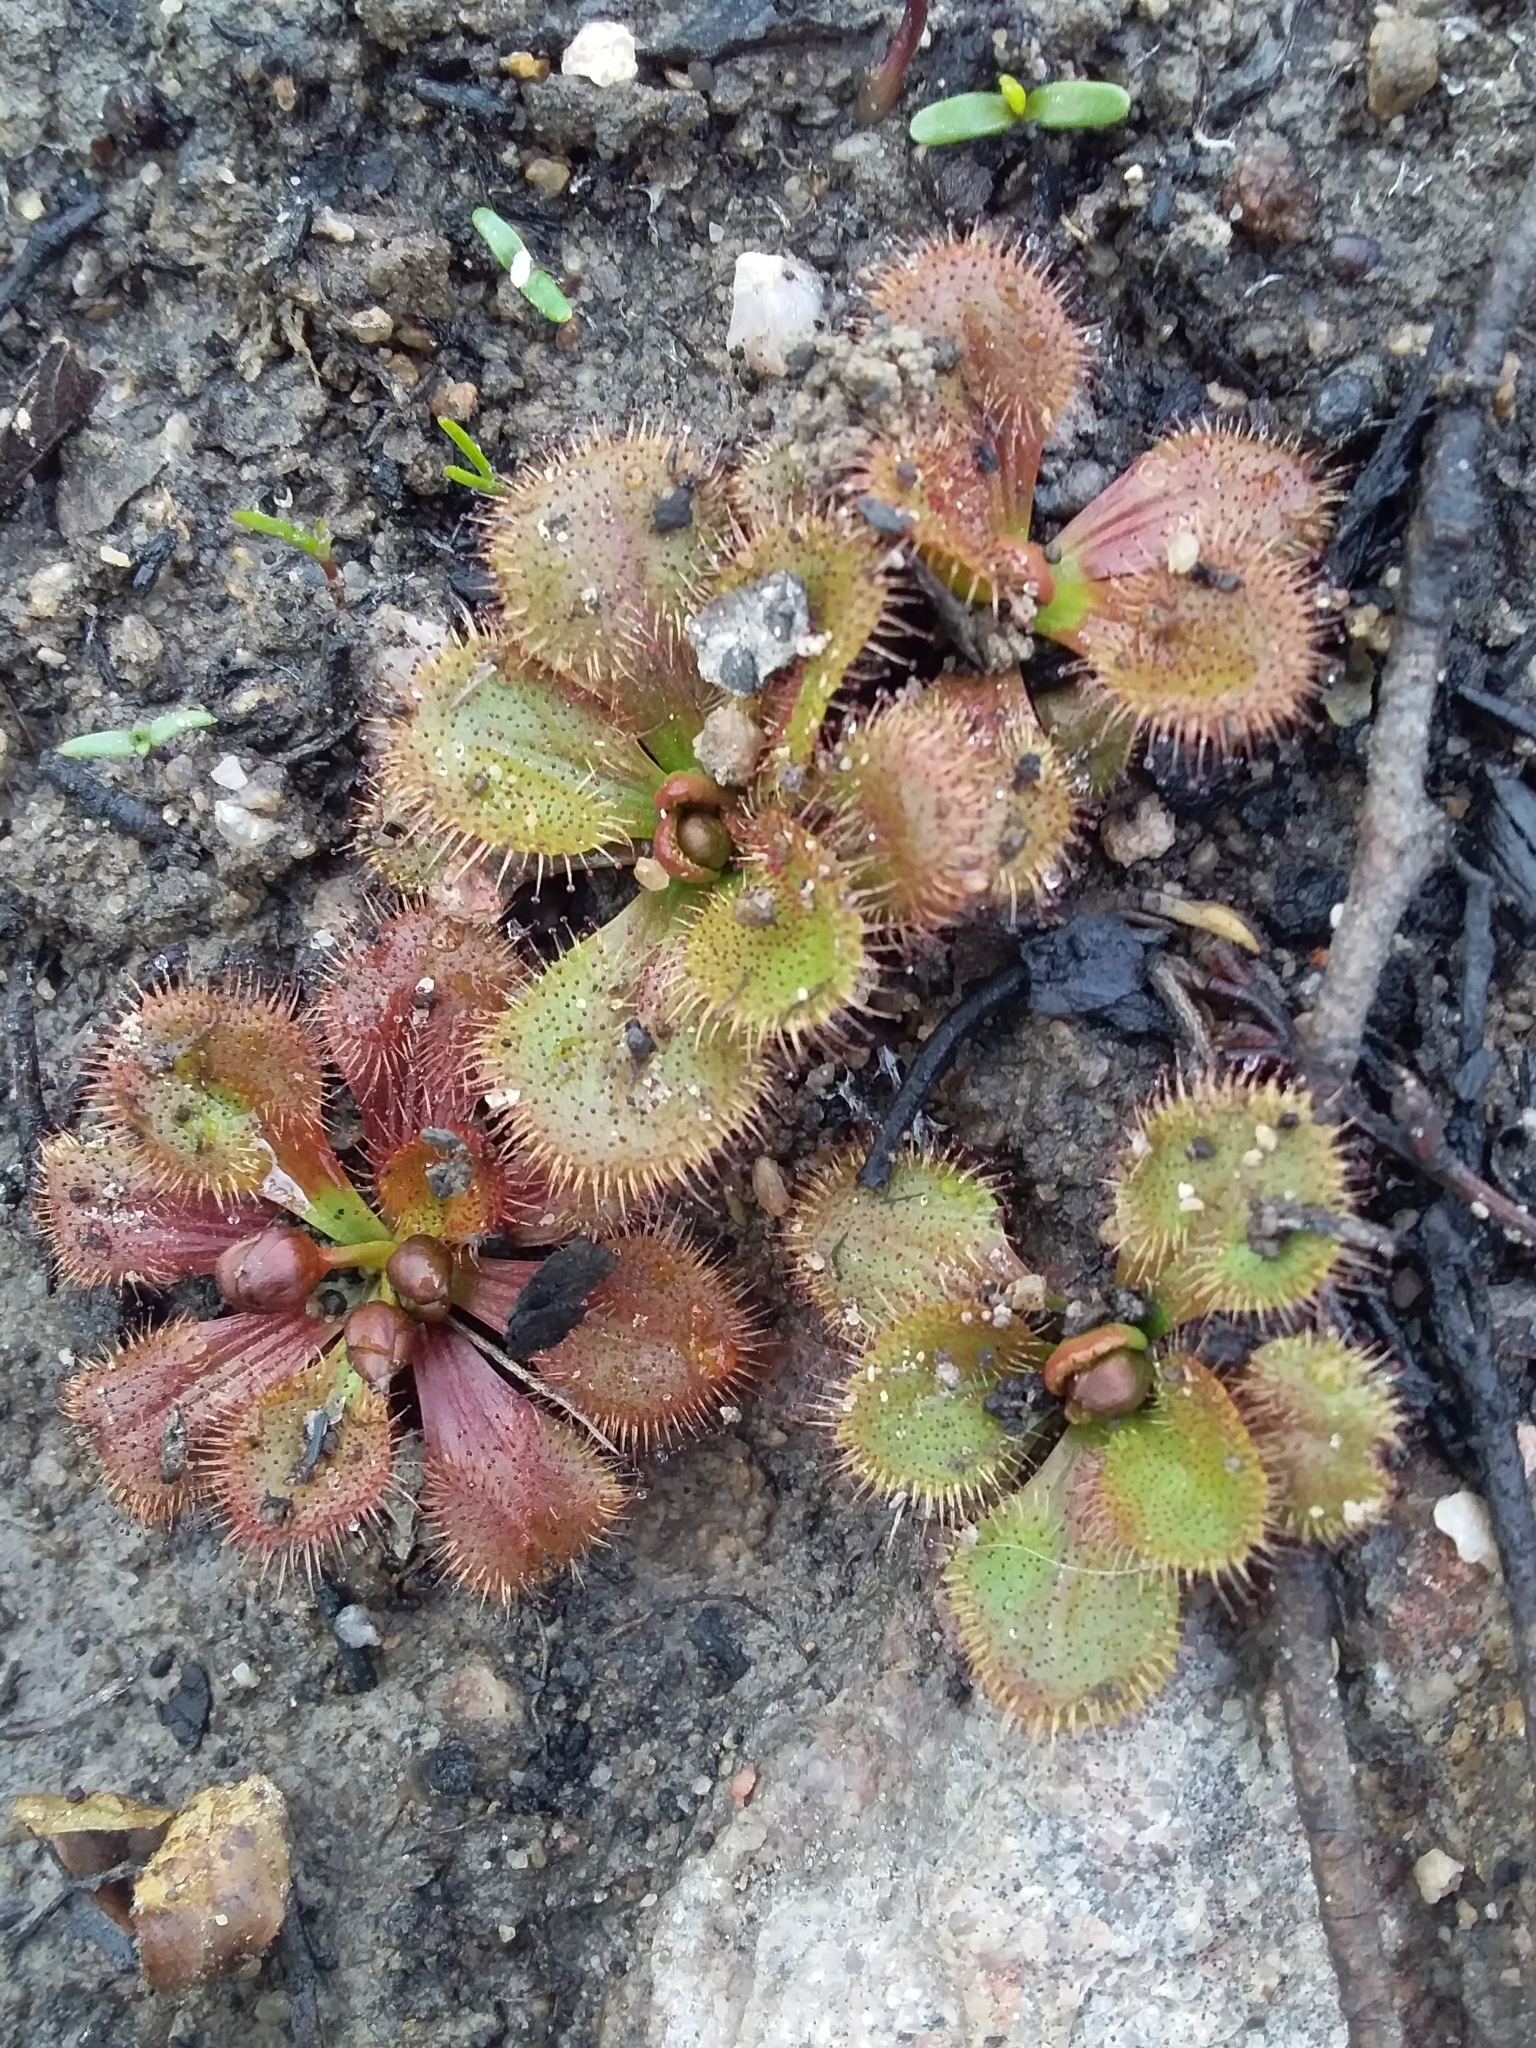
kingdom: Plantae
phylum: Tracheophyta
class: Magnoliopsida
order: Caryophyllales
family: Droseraceae
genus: Drosera
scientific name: Drosera whittakeri
